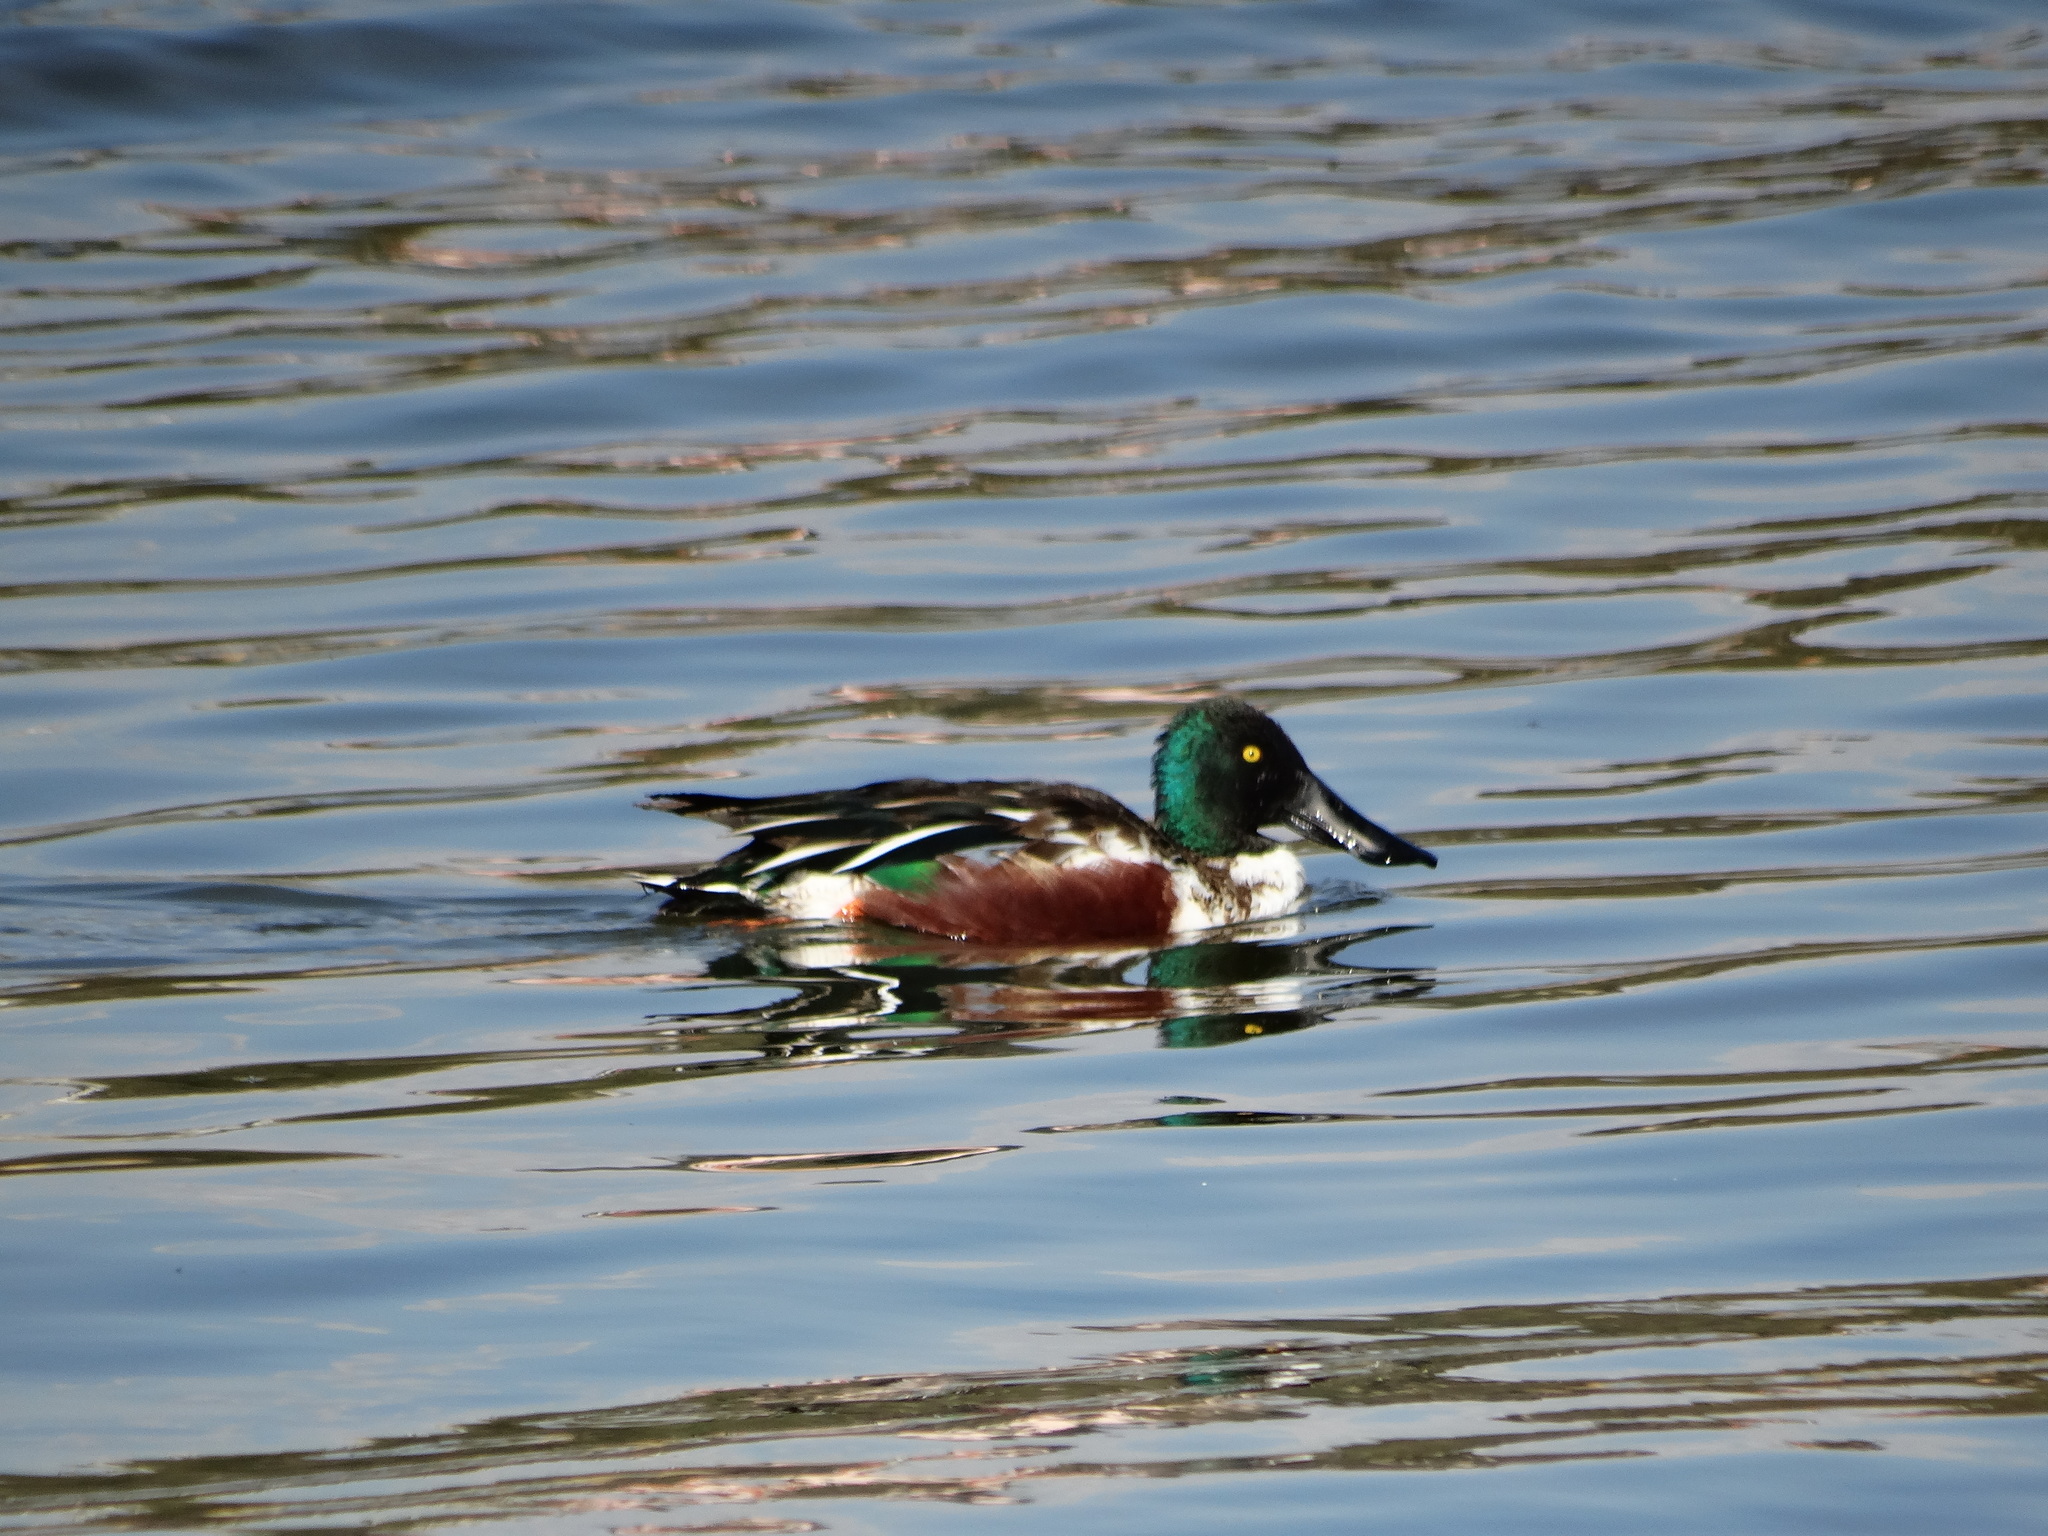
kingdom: Animalia
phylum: Chordata
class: Aves
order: Anseriformes
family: Anatidae
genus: Spatula
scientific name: Spatula clypeata
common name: Northern shoveler
